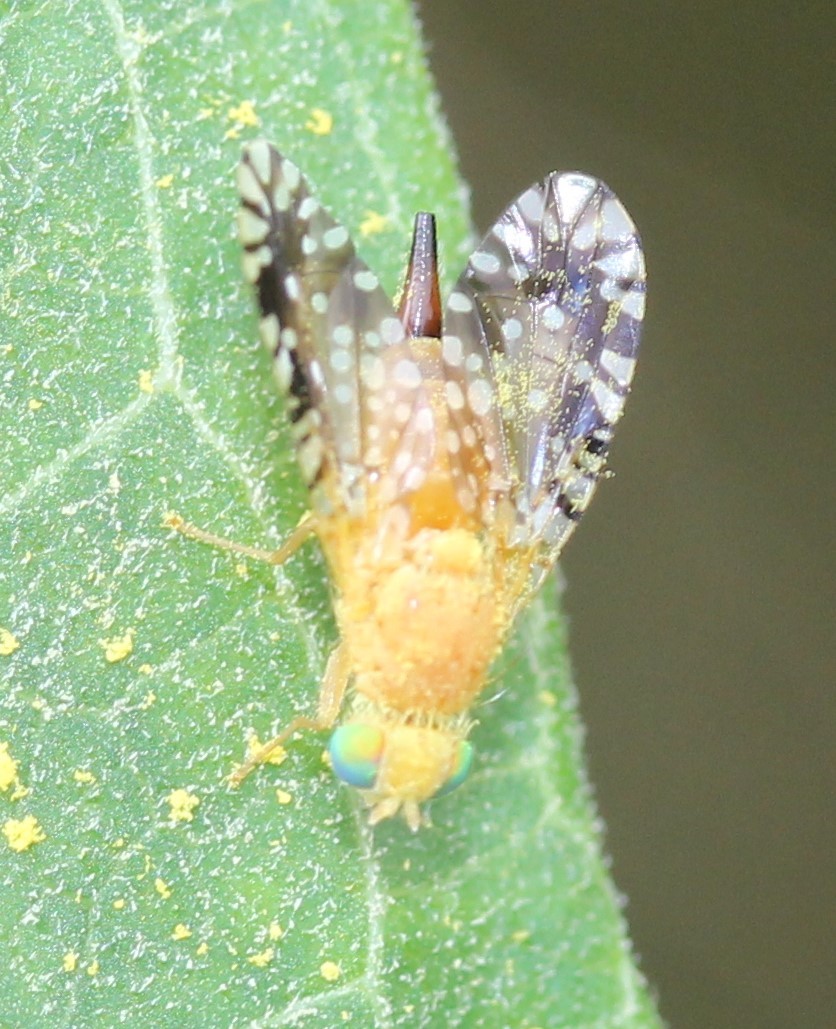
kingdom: Animalia
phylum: Arthropoda
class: Insecta
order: Diptera
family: Tephritidae
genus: Euaresta
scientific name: Euaresta festiva
